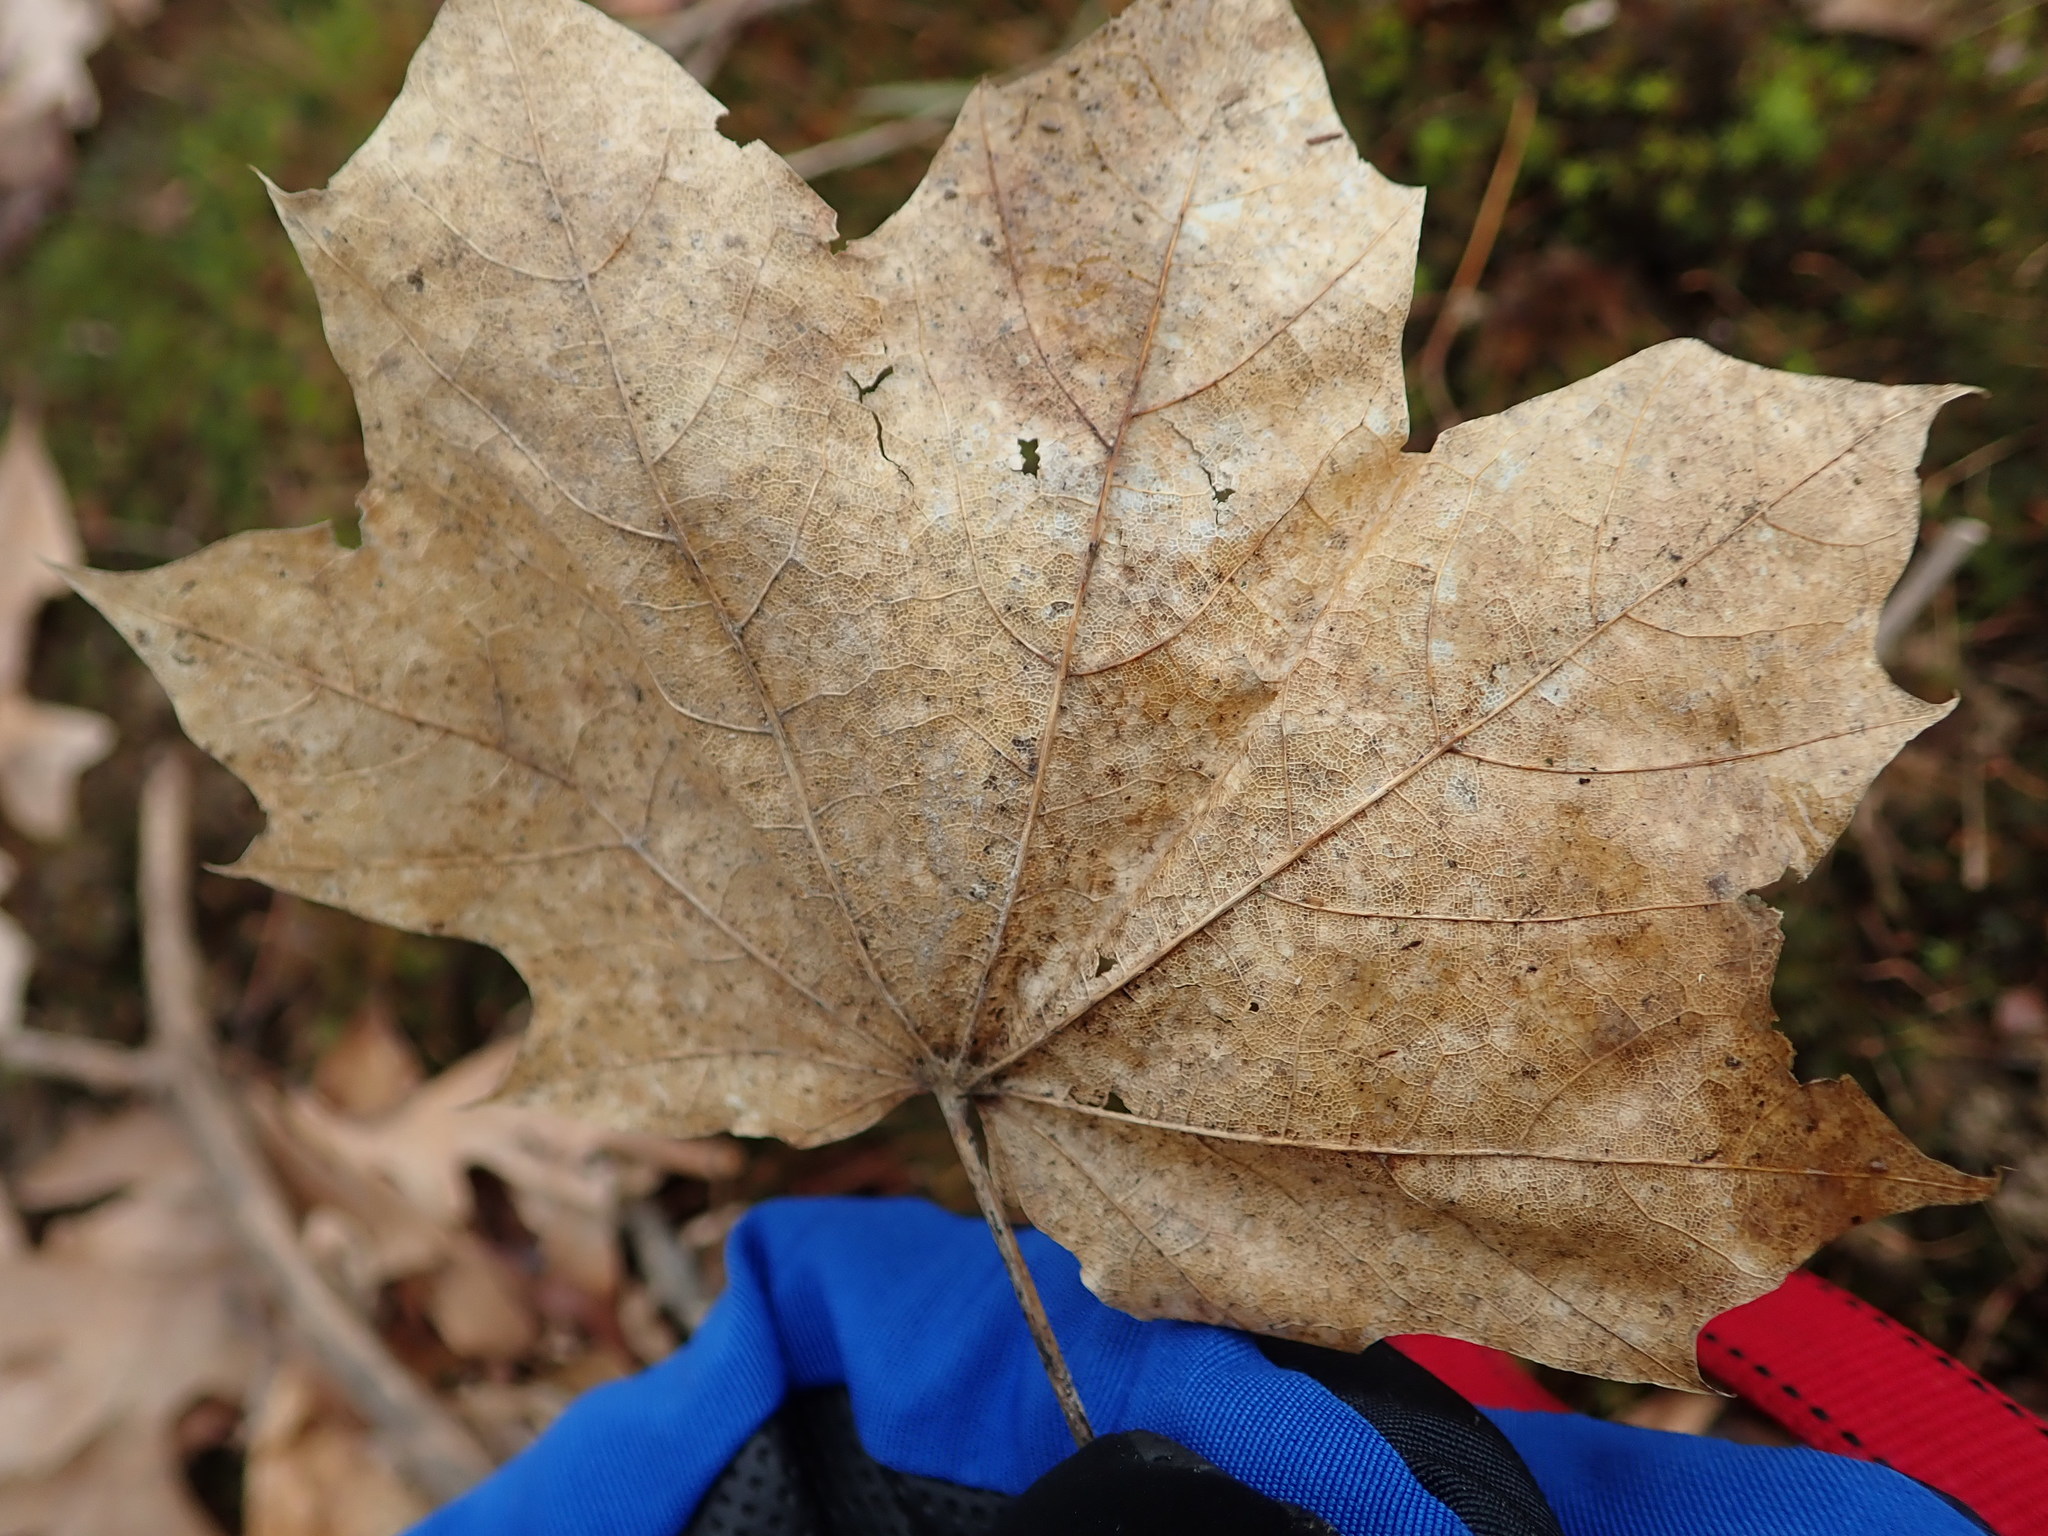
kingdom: Plantae
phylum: Tracheophyta
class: Magnoliopsida
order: Sapindales
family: Sapindaceae
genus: Acer
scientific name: Acer platanoides
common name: Norway maple
